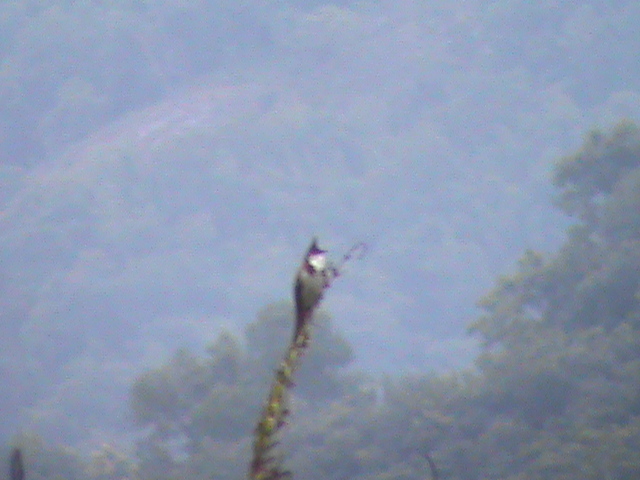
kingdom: Animalia
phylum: Chordata
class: Aves
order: Passeriformes
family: Pycnonotidae
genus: Pycnonotus
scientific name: Pycnonotus jocosus
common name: Red-whiskered bulbul
